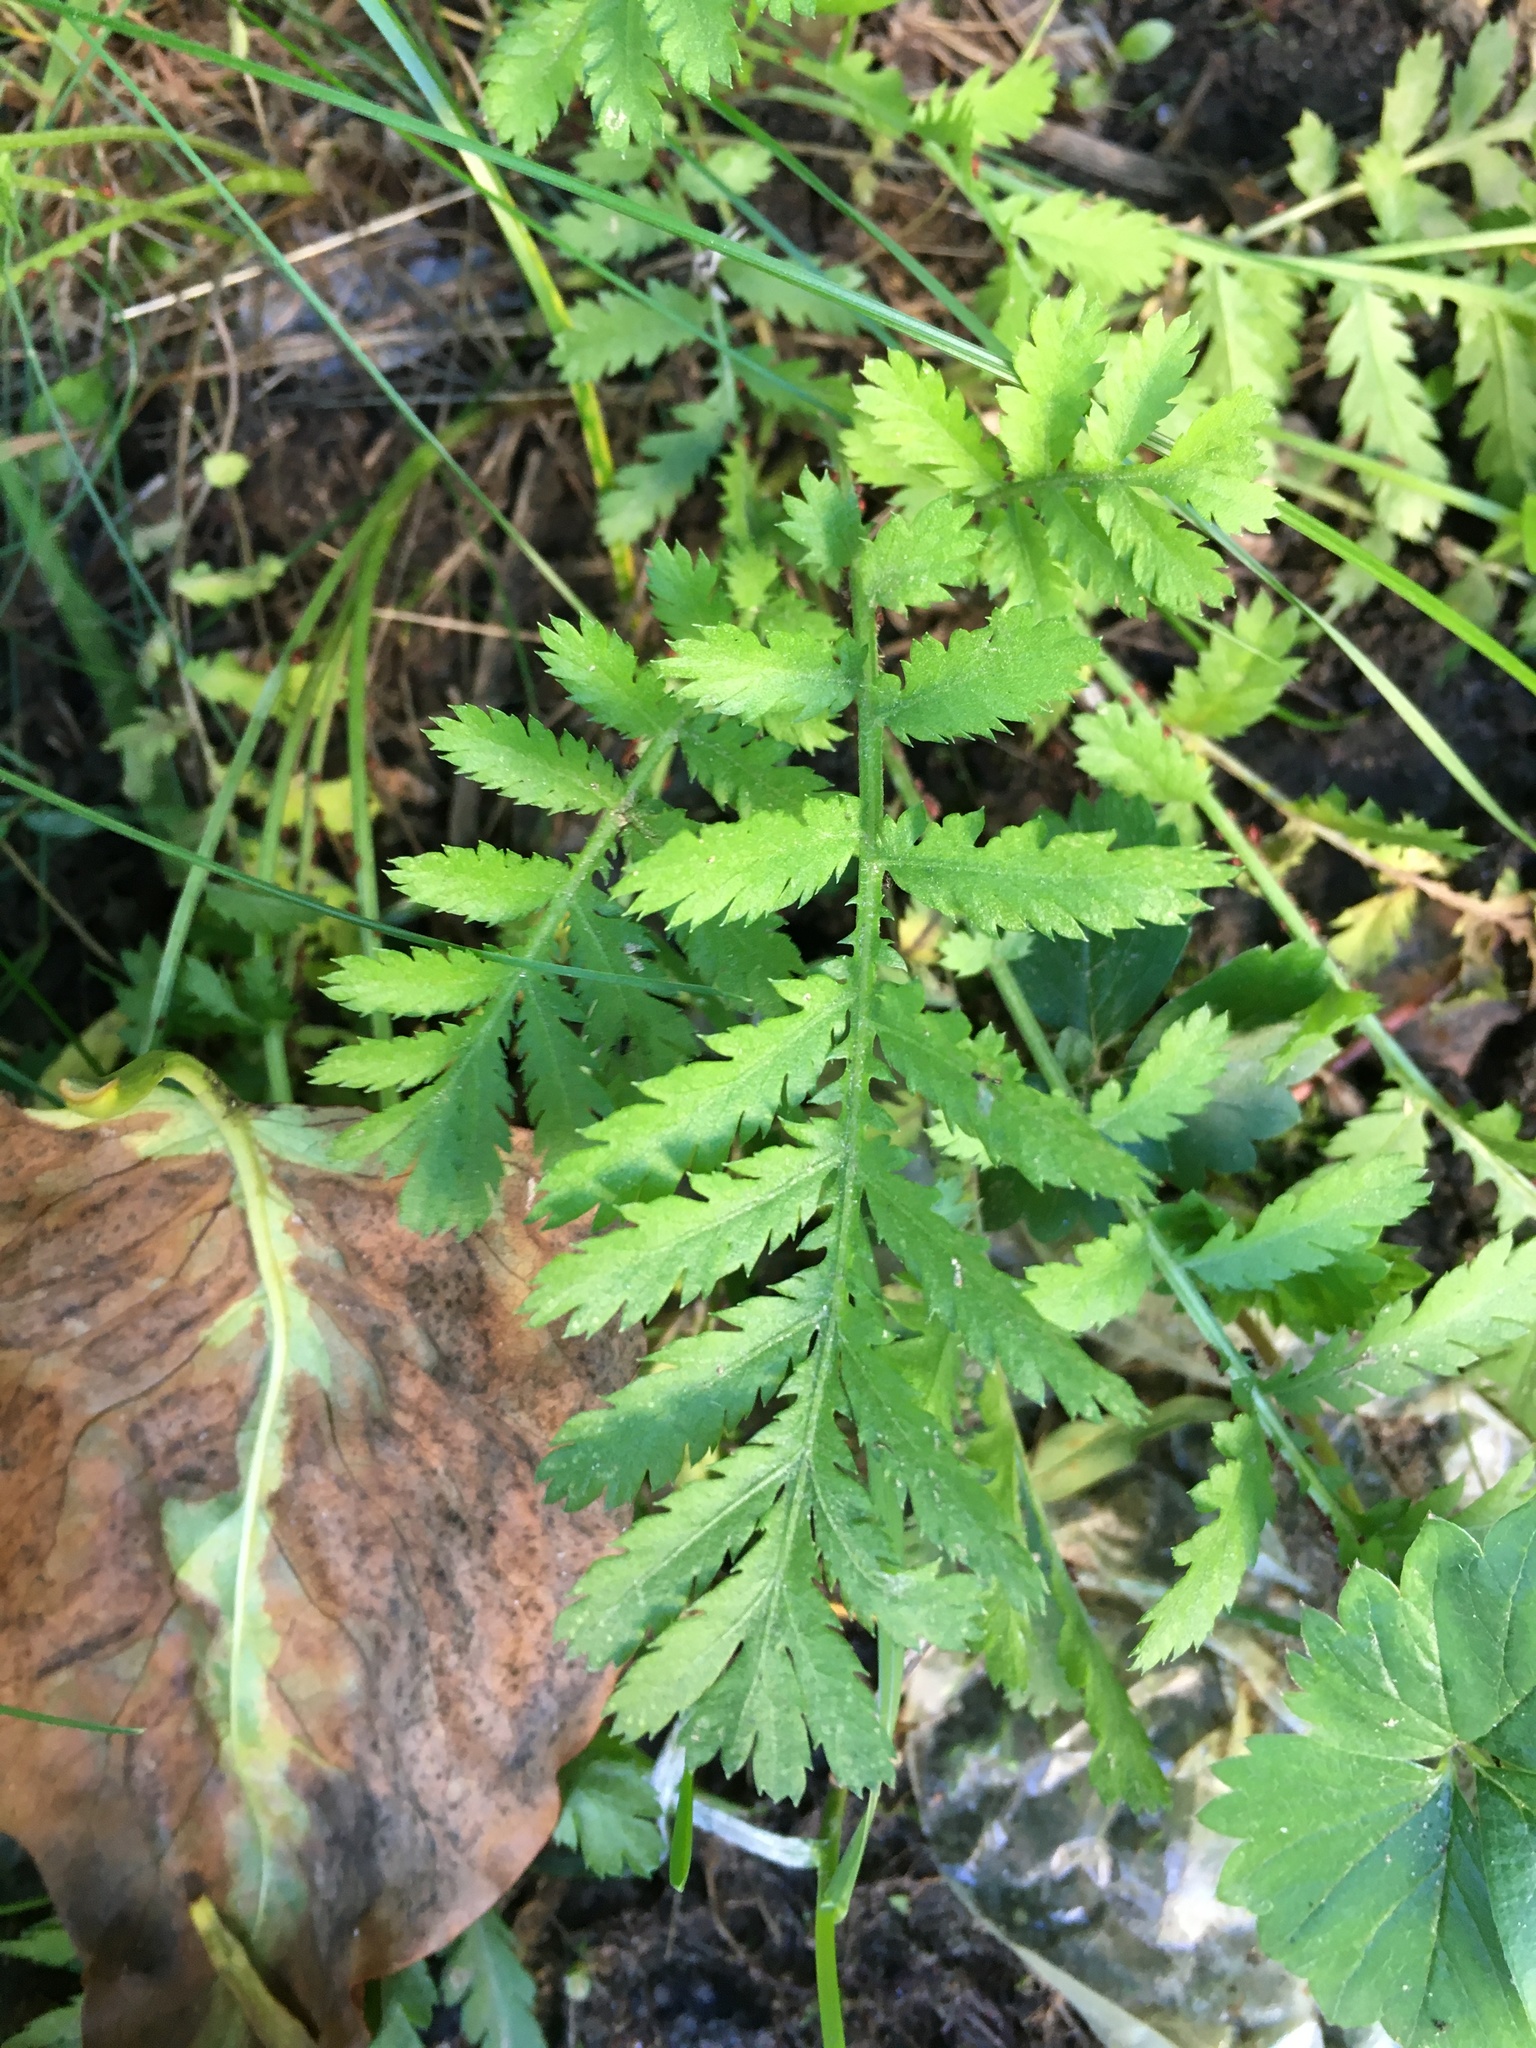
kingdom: Plantae
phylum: Tracheophyta
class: Magnoliopsida
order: Asterales
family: Asteraceae
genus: Tanacetum
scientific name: Tanacetum vulgare
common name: Common tansy
